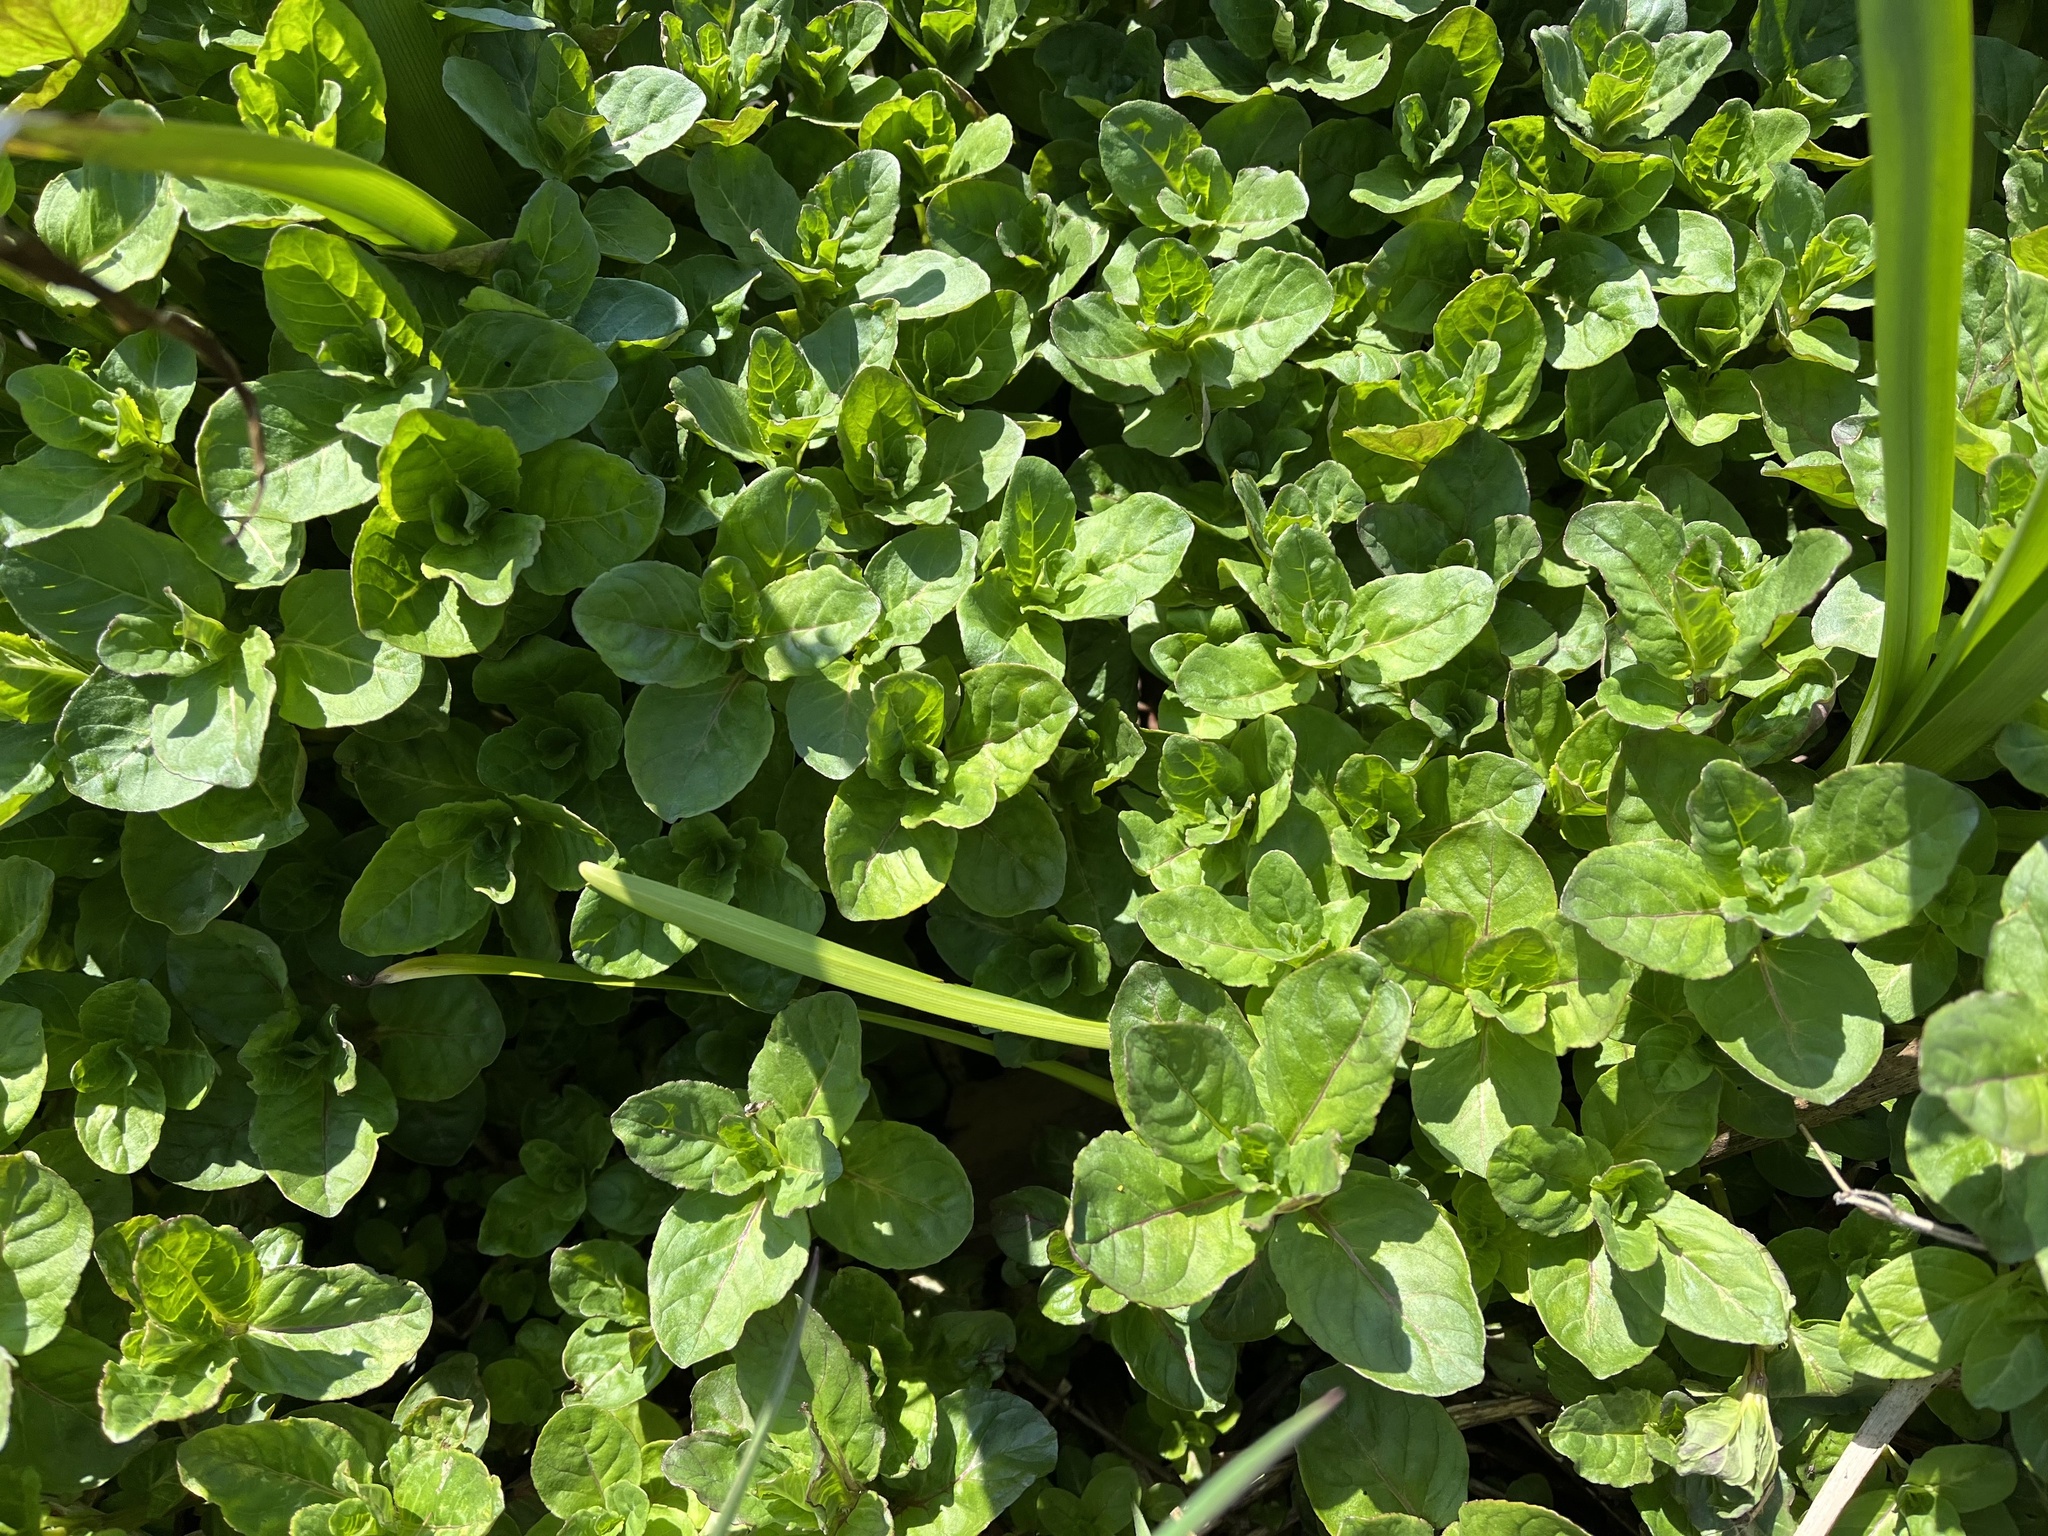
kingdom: Plantae
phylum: Tracheophyta
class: Magnoliopsida
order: Lamiales
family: Plantaginaceae
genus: Veronica
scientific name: Veronica beccabunga
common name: Brooklime
